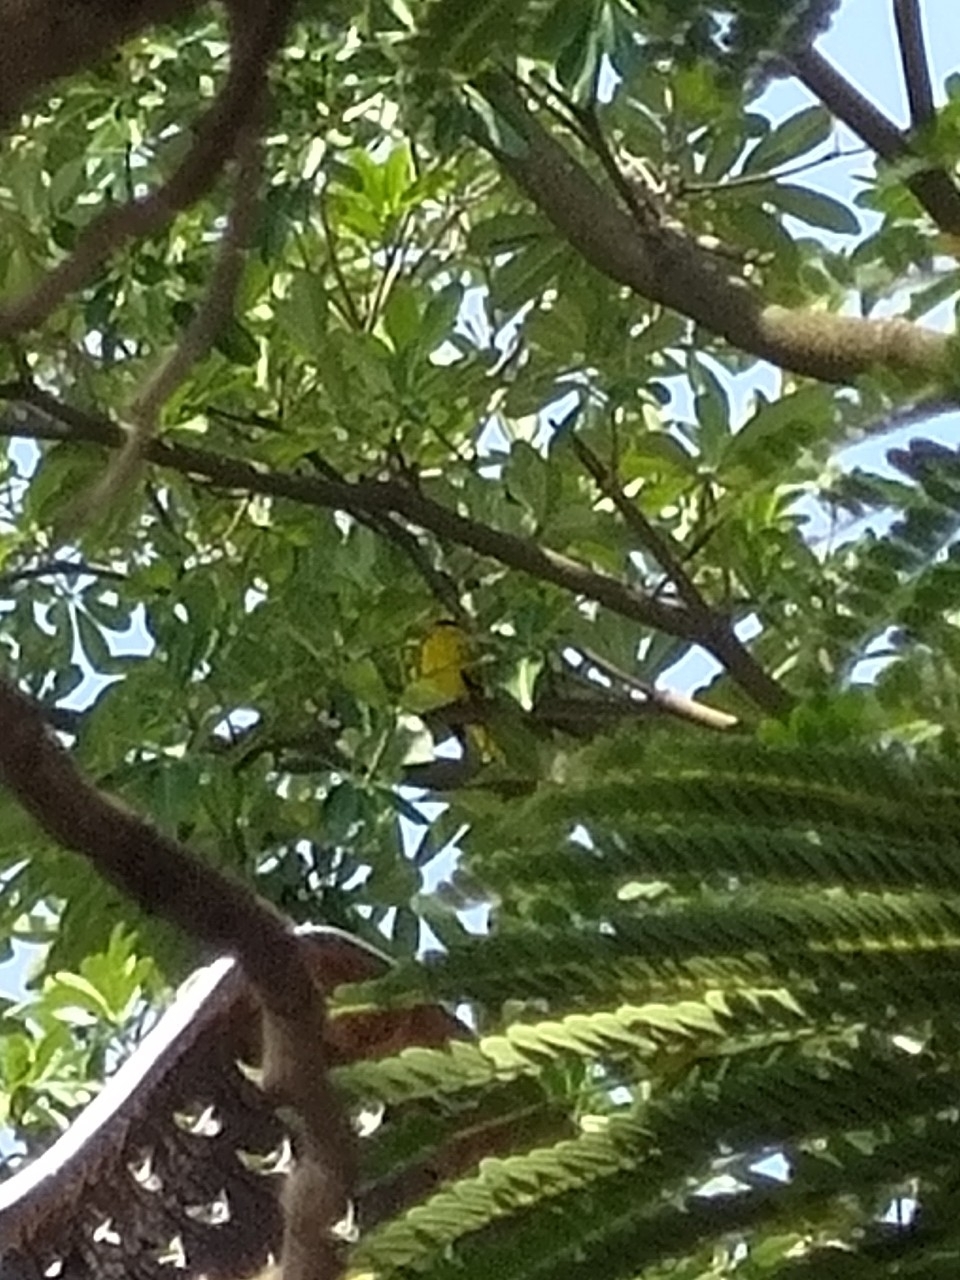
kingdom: Animalia
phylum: Chordata
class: Aves
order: Passeriformes
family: Oriolidae
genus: Oriolus
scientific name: Oriolus chinensis
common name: Black-naped oriole
